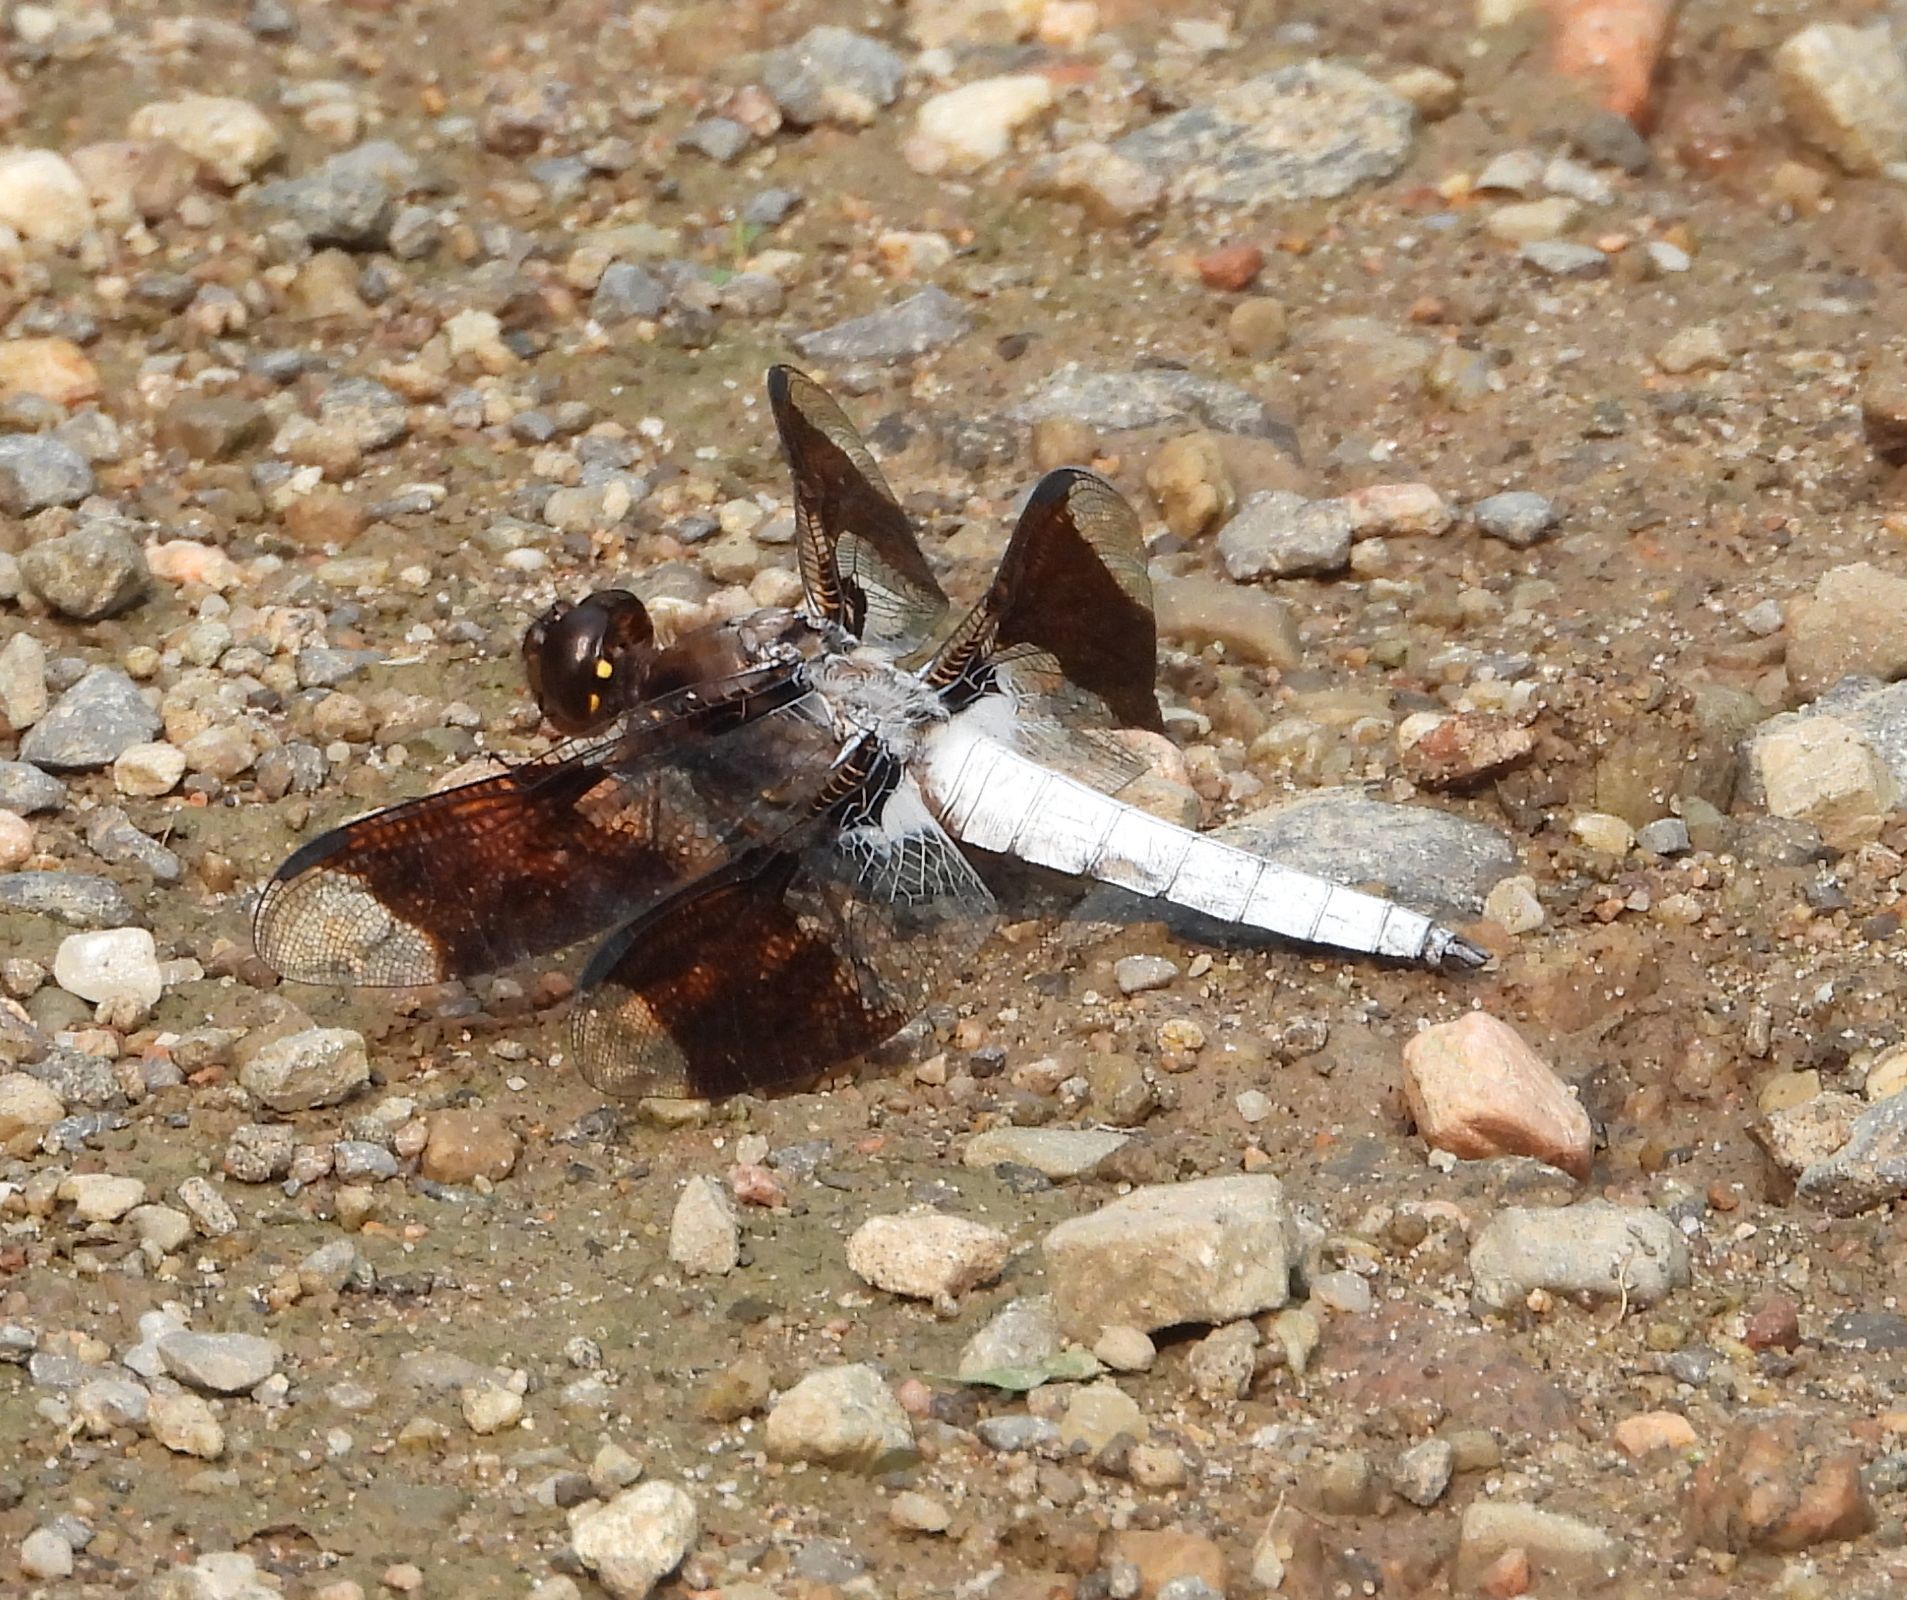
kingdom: Animalia
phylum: Arthropoda
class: Insecta
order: Odonata
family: Libellulidae
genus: Plathemis
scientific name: Plathemis lydia
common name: Common whitetail
